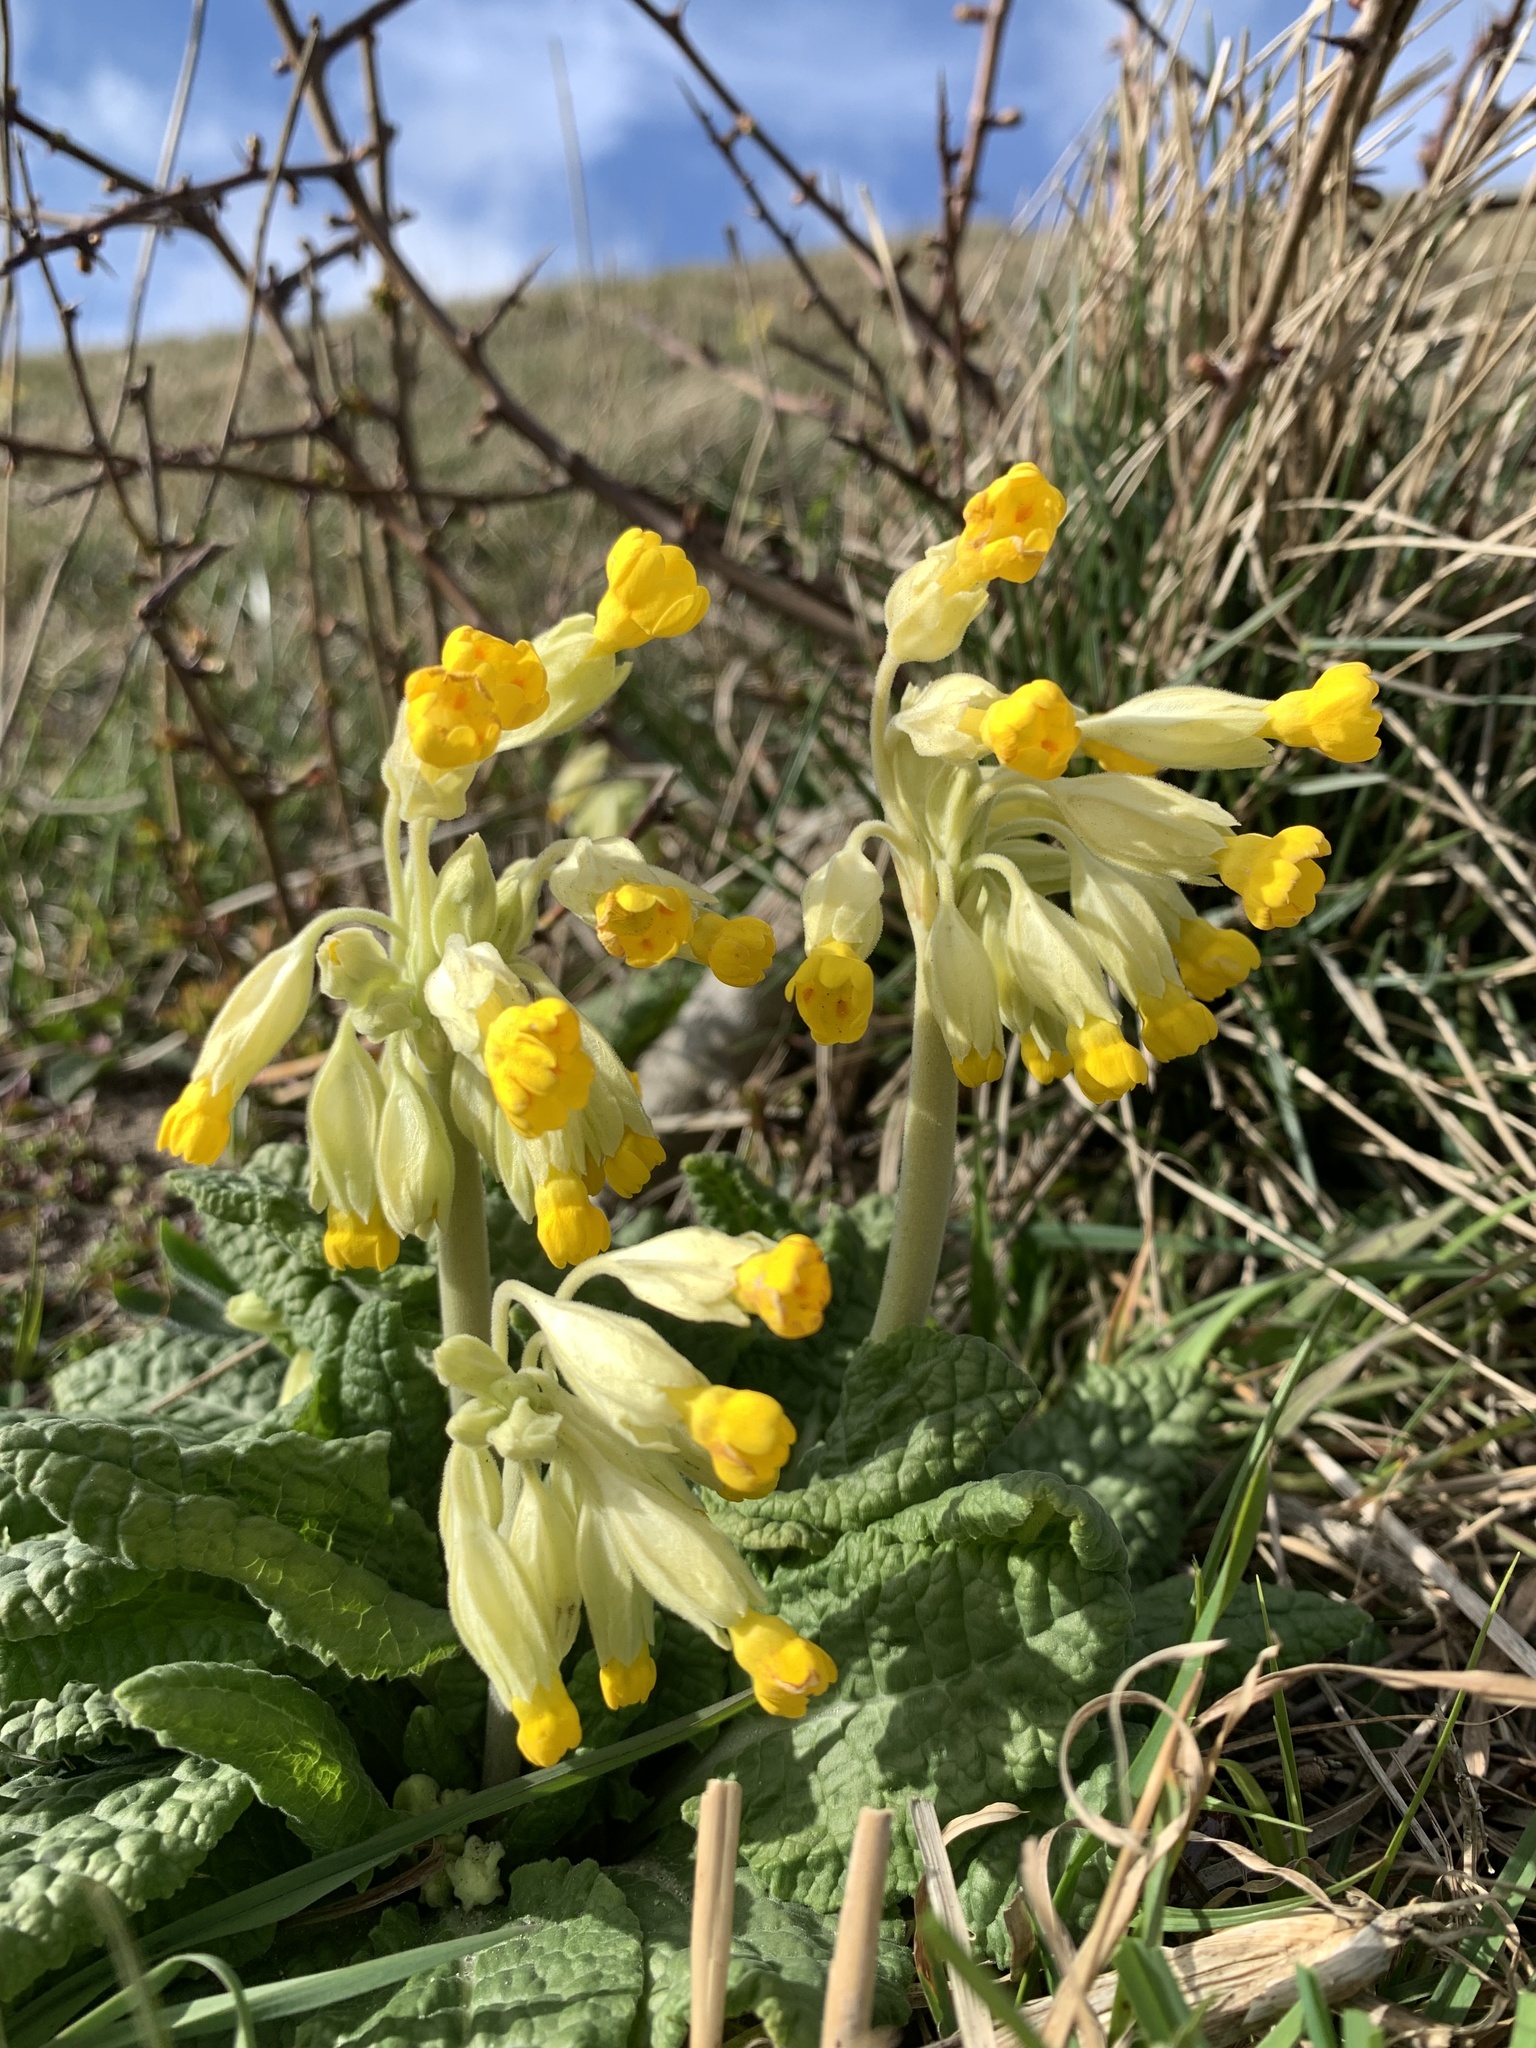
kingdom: Plantae
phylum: Tracheophyta
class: Magnoliopsida
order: Ericales
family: Primulaceae
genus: Primula
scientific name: Primula veris
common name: Cowslip
